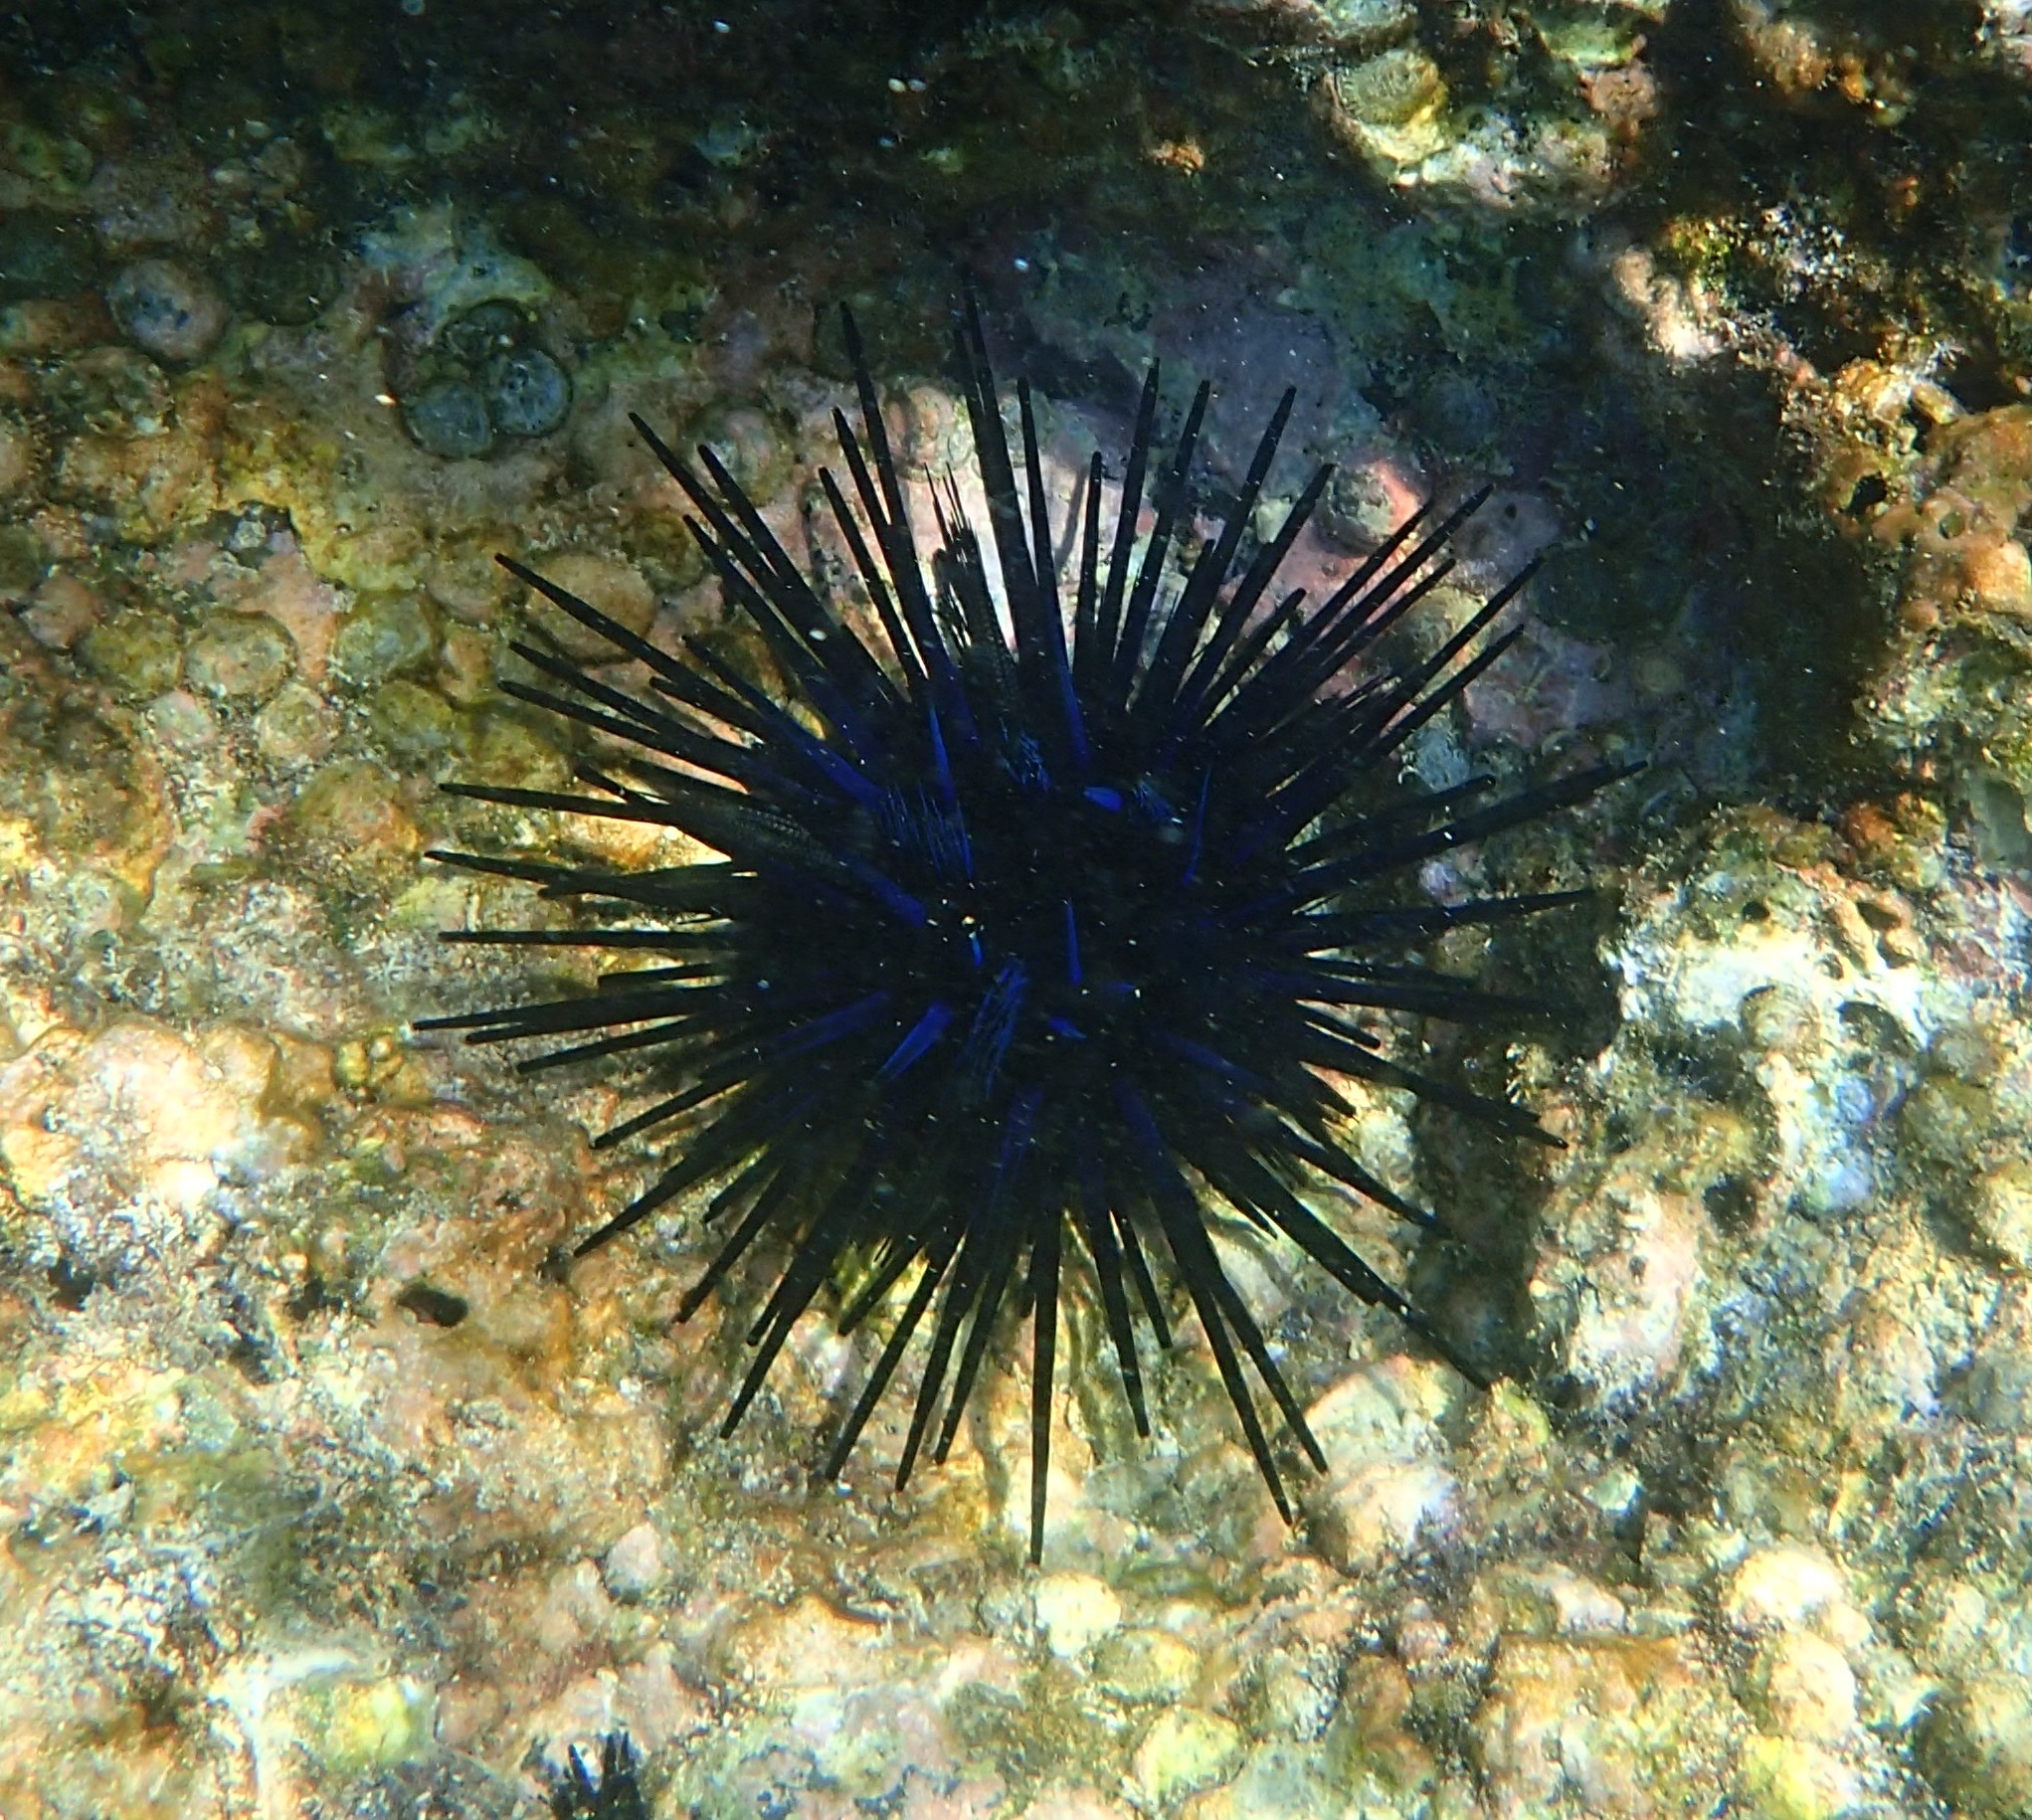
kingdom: Animalia
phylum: Echinodermata
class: Echinoidea
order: Diadematoida
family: Diadematidae
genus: Echinothrix
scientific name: Echinothrix diadema
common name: Schwarzer diademseeigel
